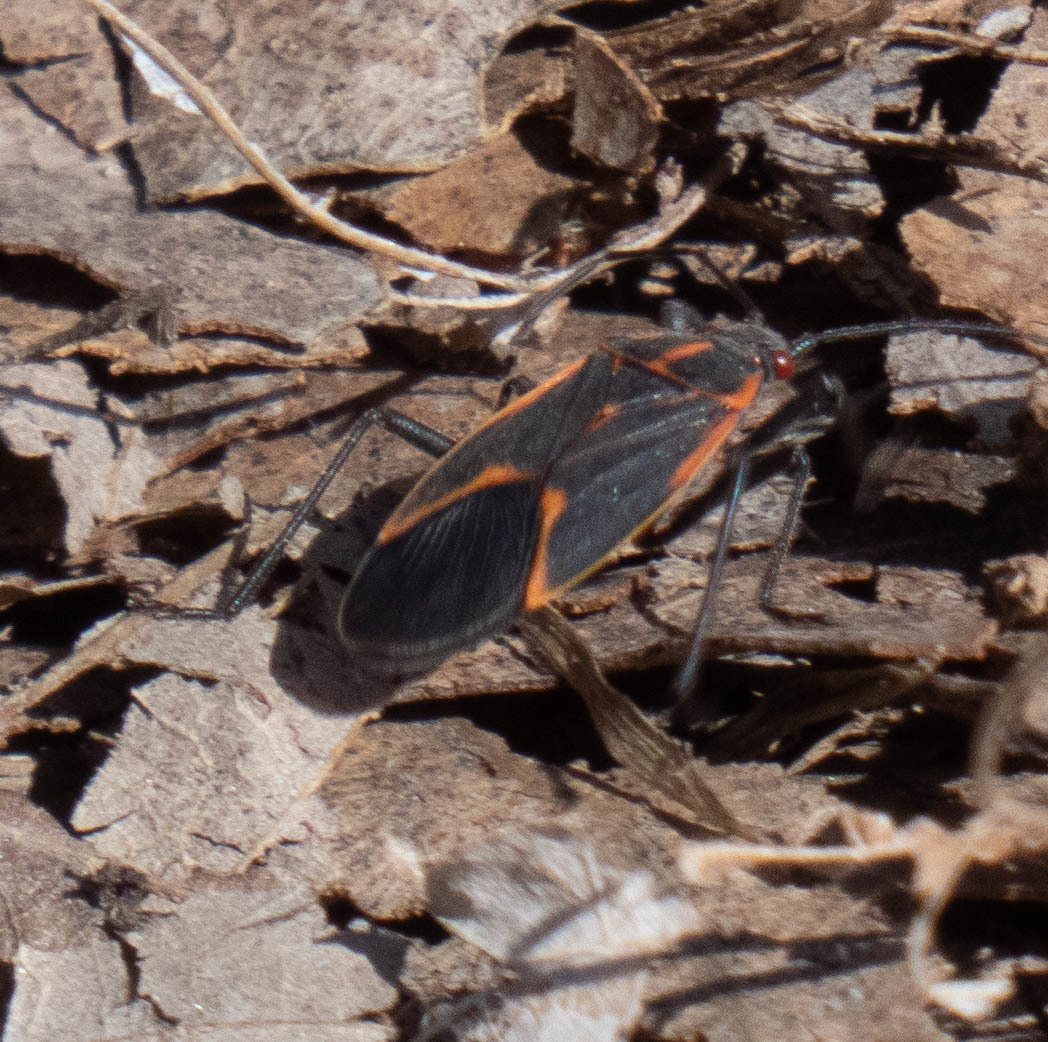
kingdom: Animalia
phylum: Arthropoda
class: Insecta
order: Hemiptera
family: Rhopalidae
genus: Boisea
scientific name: Boisea trivittata
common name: Boxelder bug
